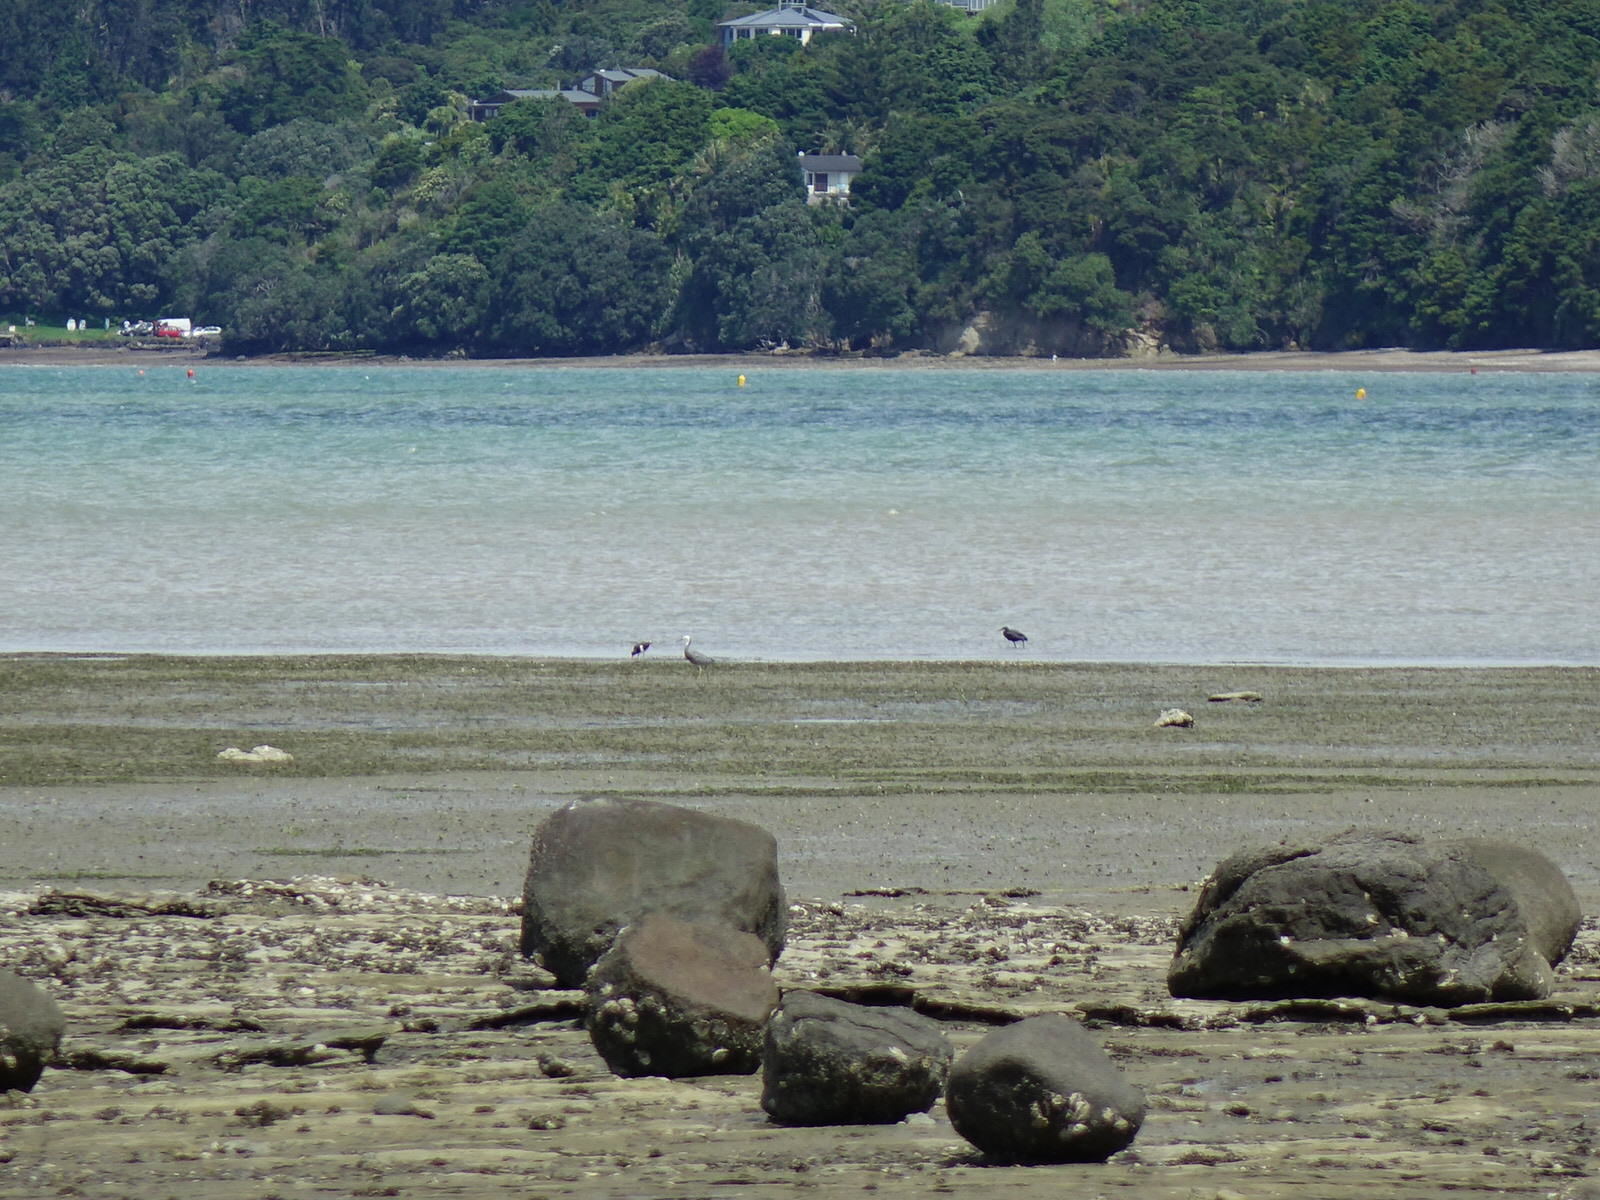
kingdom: Animalia
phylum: Chordata
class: Aves
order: Pelecaniformes
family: Ardeidae
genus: Egretta
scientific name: Egretta sacra
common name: Pacific reef heron
